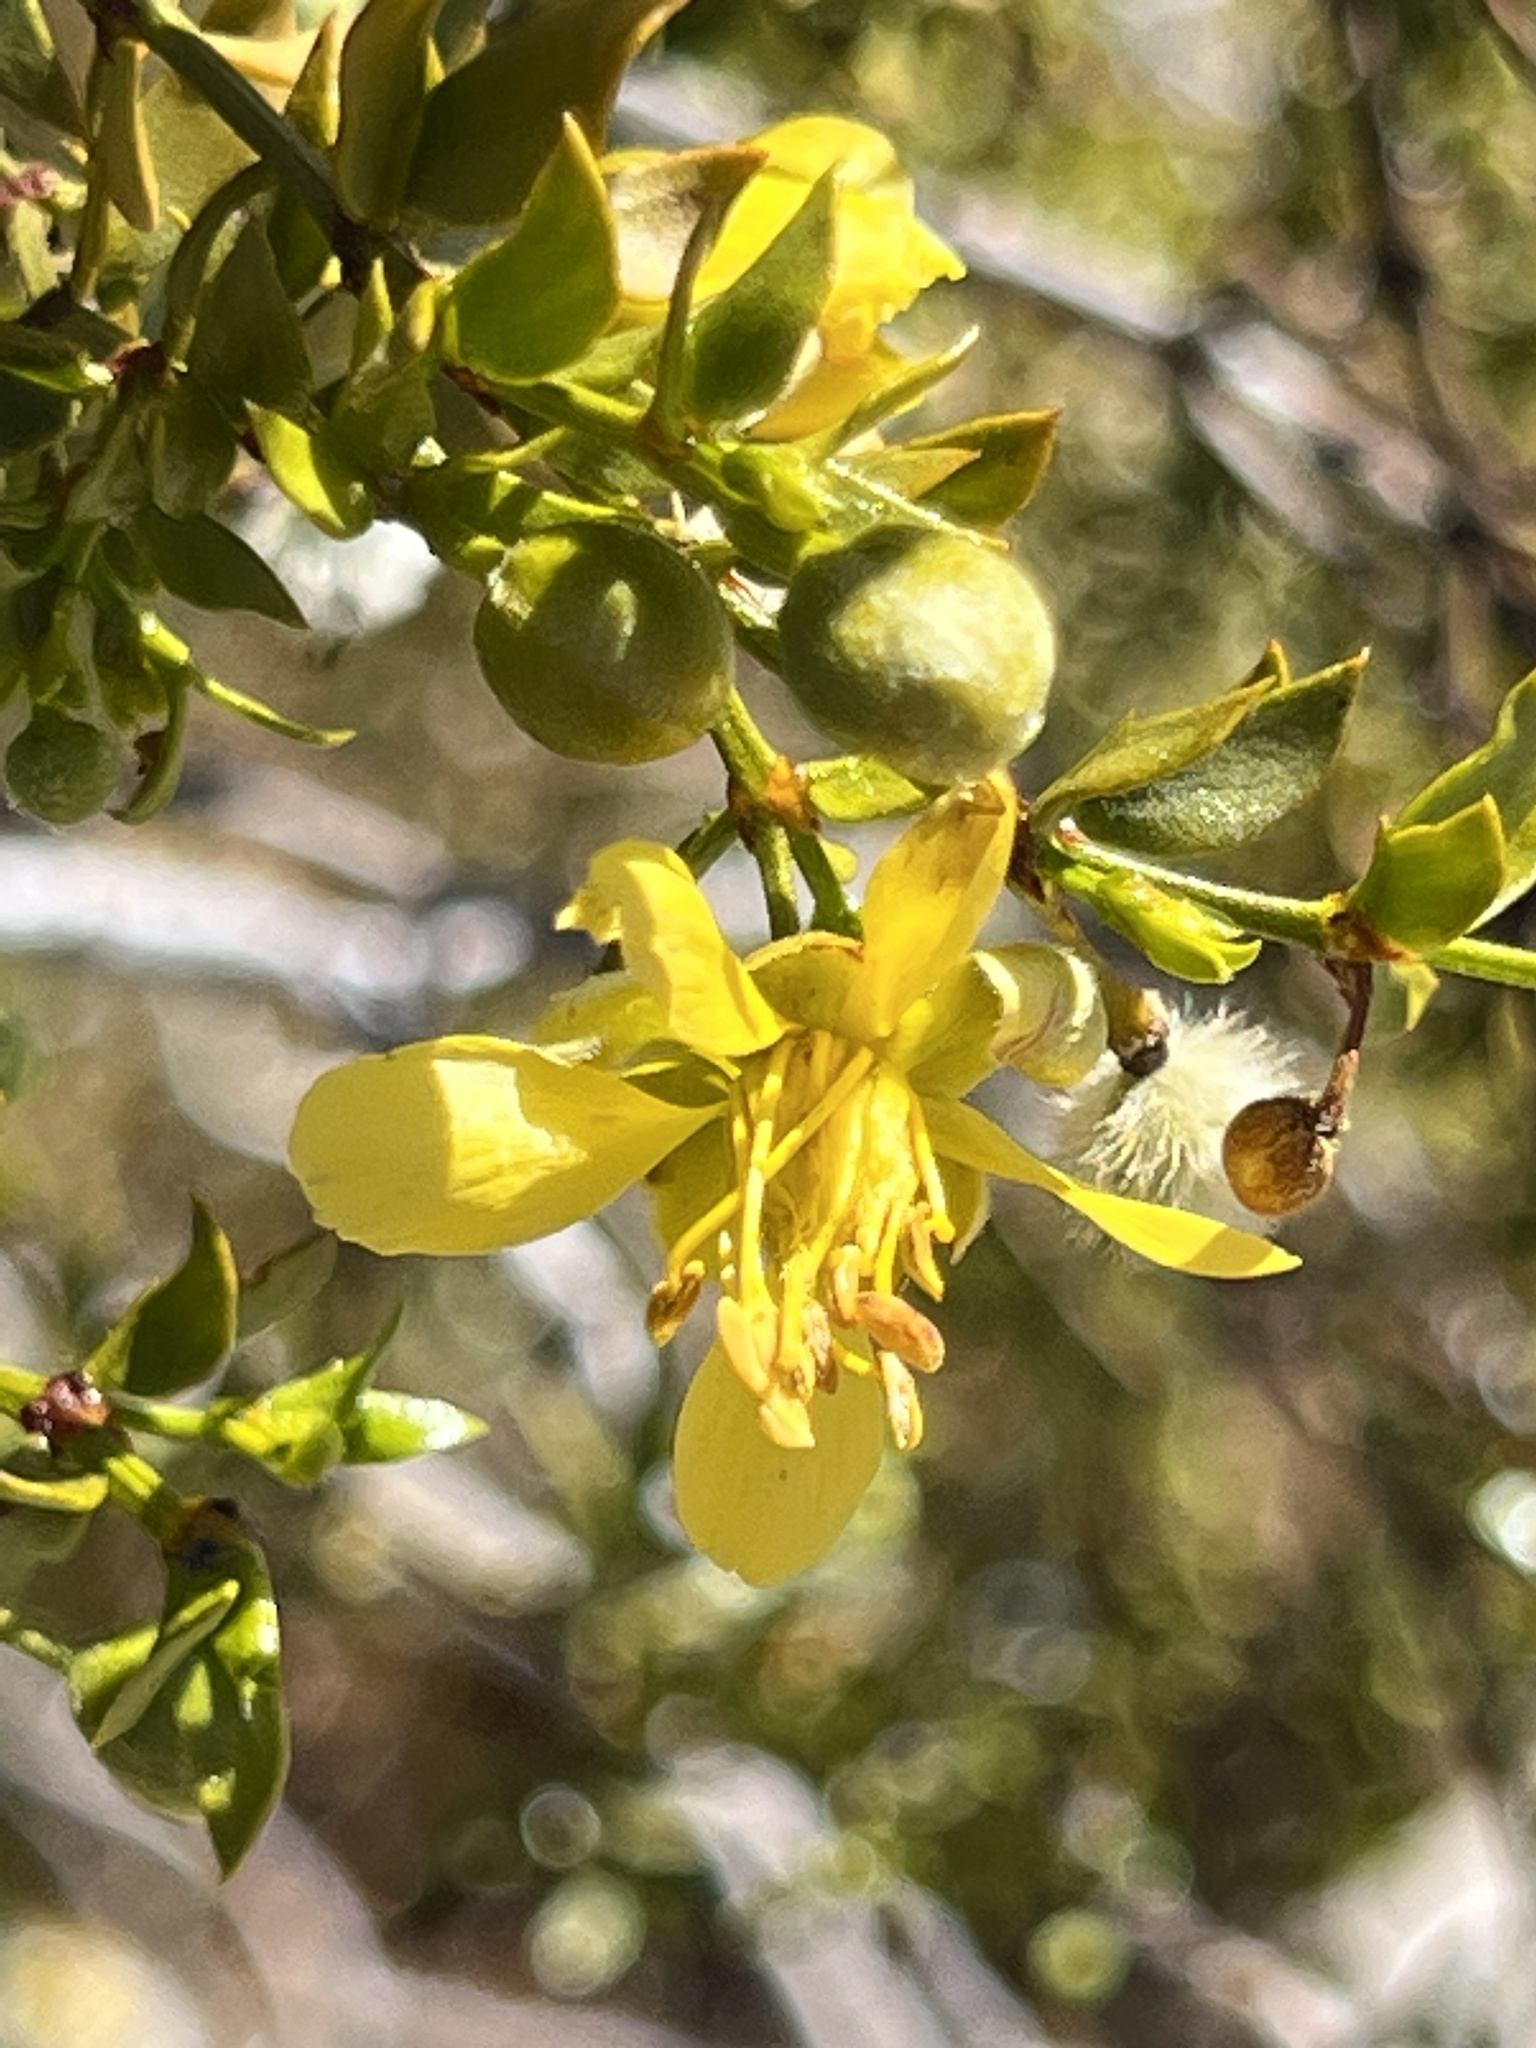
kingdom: Plantae
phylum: Tracheophyta
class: Magnoliopsida
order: Zygophyllales
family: Zygophyllaceae
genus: Larrea
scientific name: Larrea tridentata
